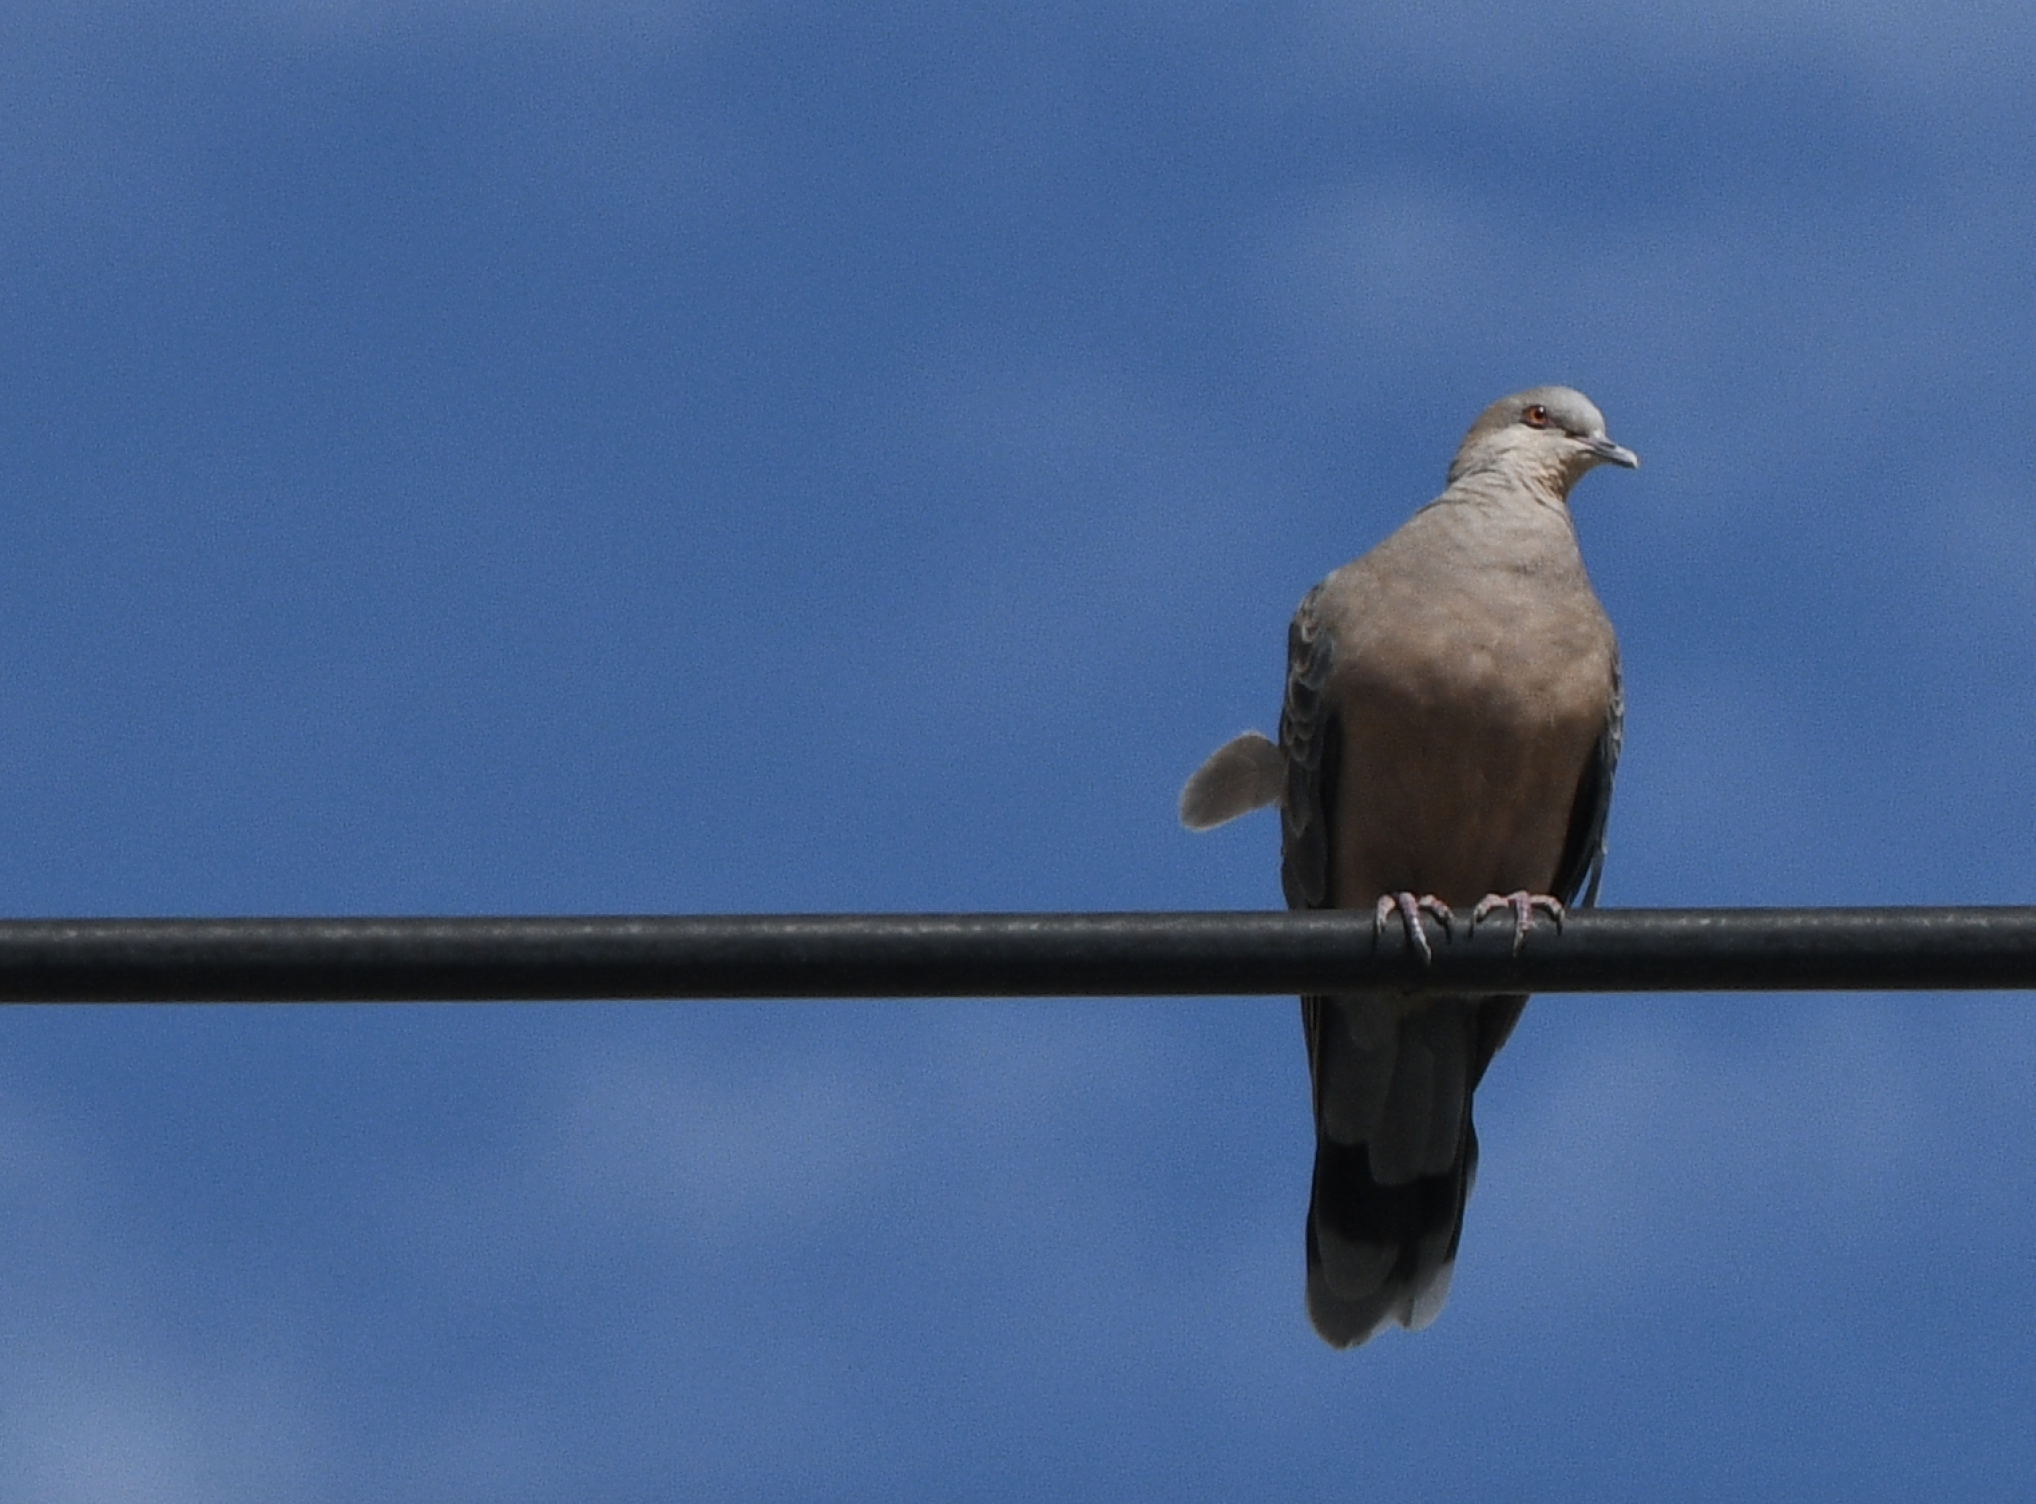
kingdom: Animalia
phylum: Chordata
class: Aves
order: Columbiformes
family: Columbidae
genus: Streptopelia
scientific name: Streptopelia orientalis
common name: Oriental turtle dove
